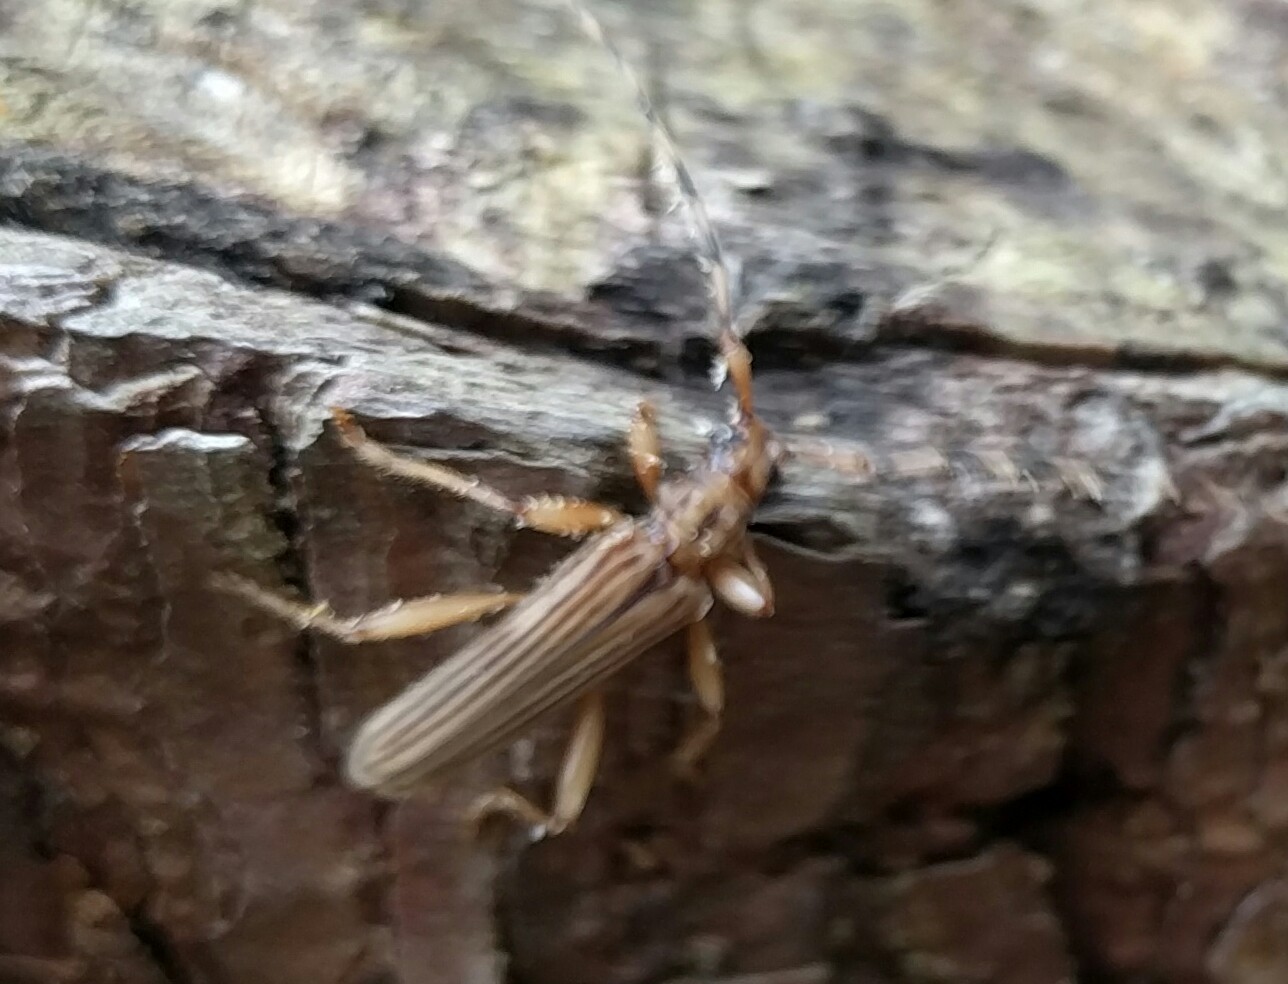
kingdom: Animalia
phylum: Arthropoda
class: Insecta
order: Coleoptera
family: Cerambycidae
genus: Leptachrous
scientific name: Leptachrous strigipennis
